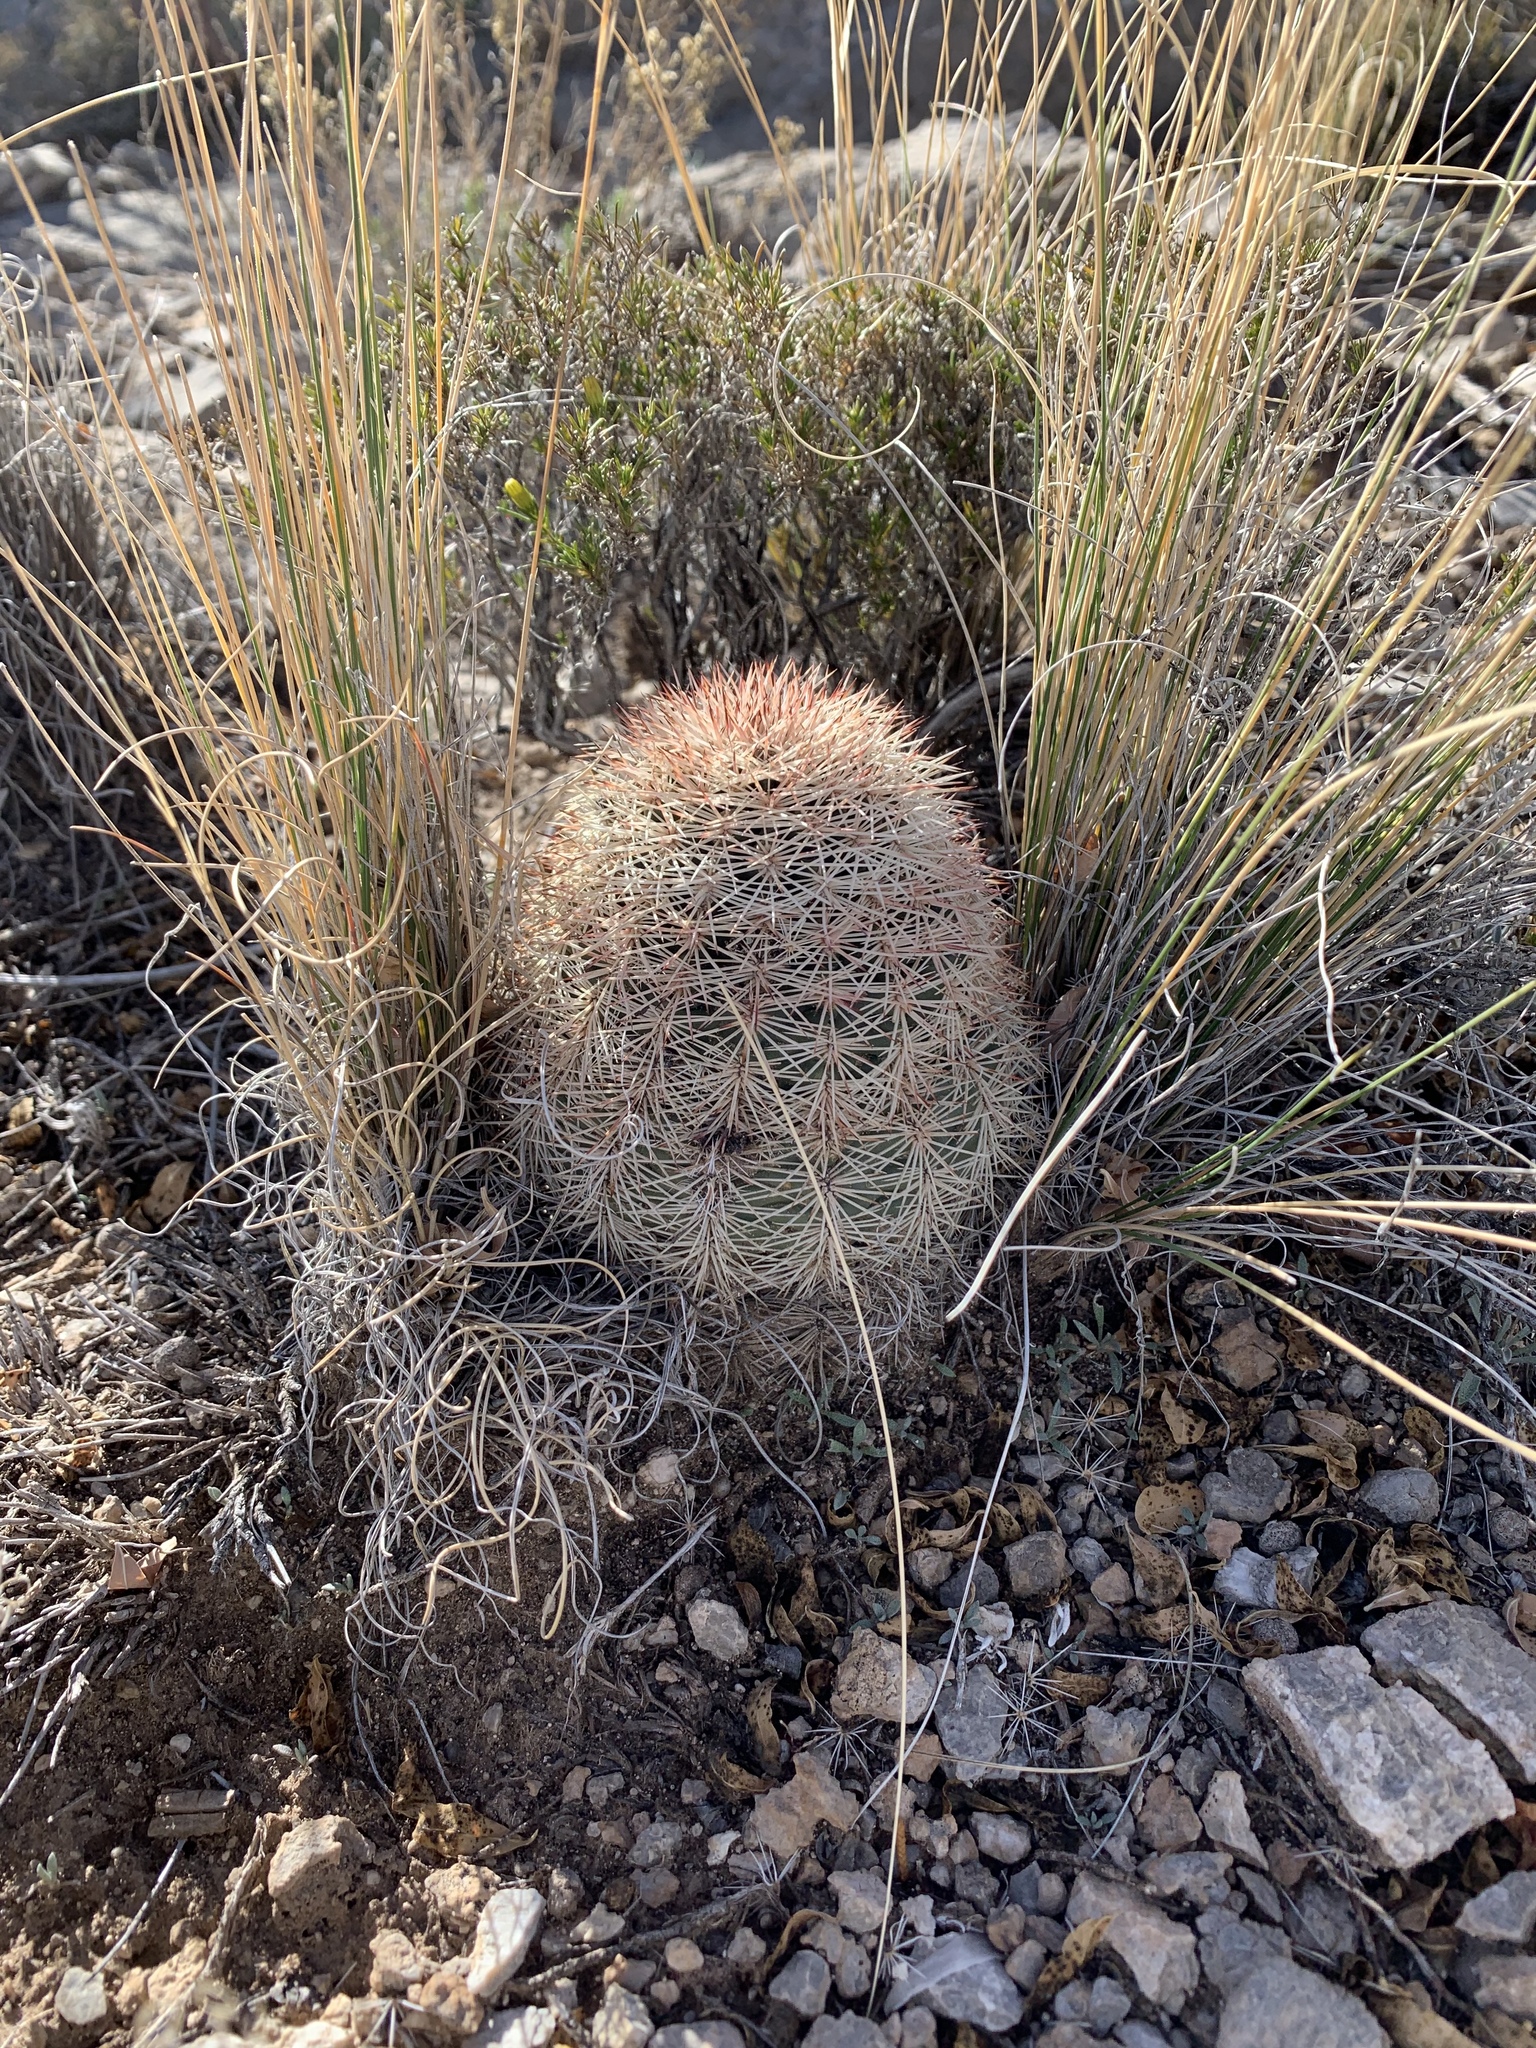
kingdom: Plantae
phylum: Tracheophyta
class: Magnoliopsida
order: Caryophyllales
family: Cactaceae
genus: Echinocereus
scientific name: Echinocereus dasyacanthus
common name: Spiny hedgehog cactus
